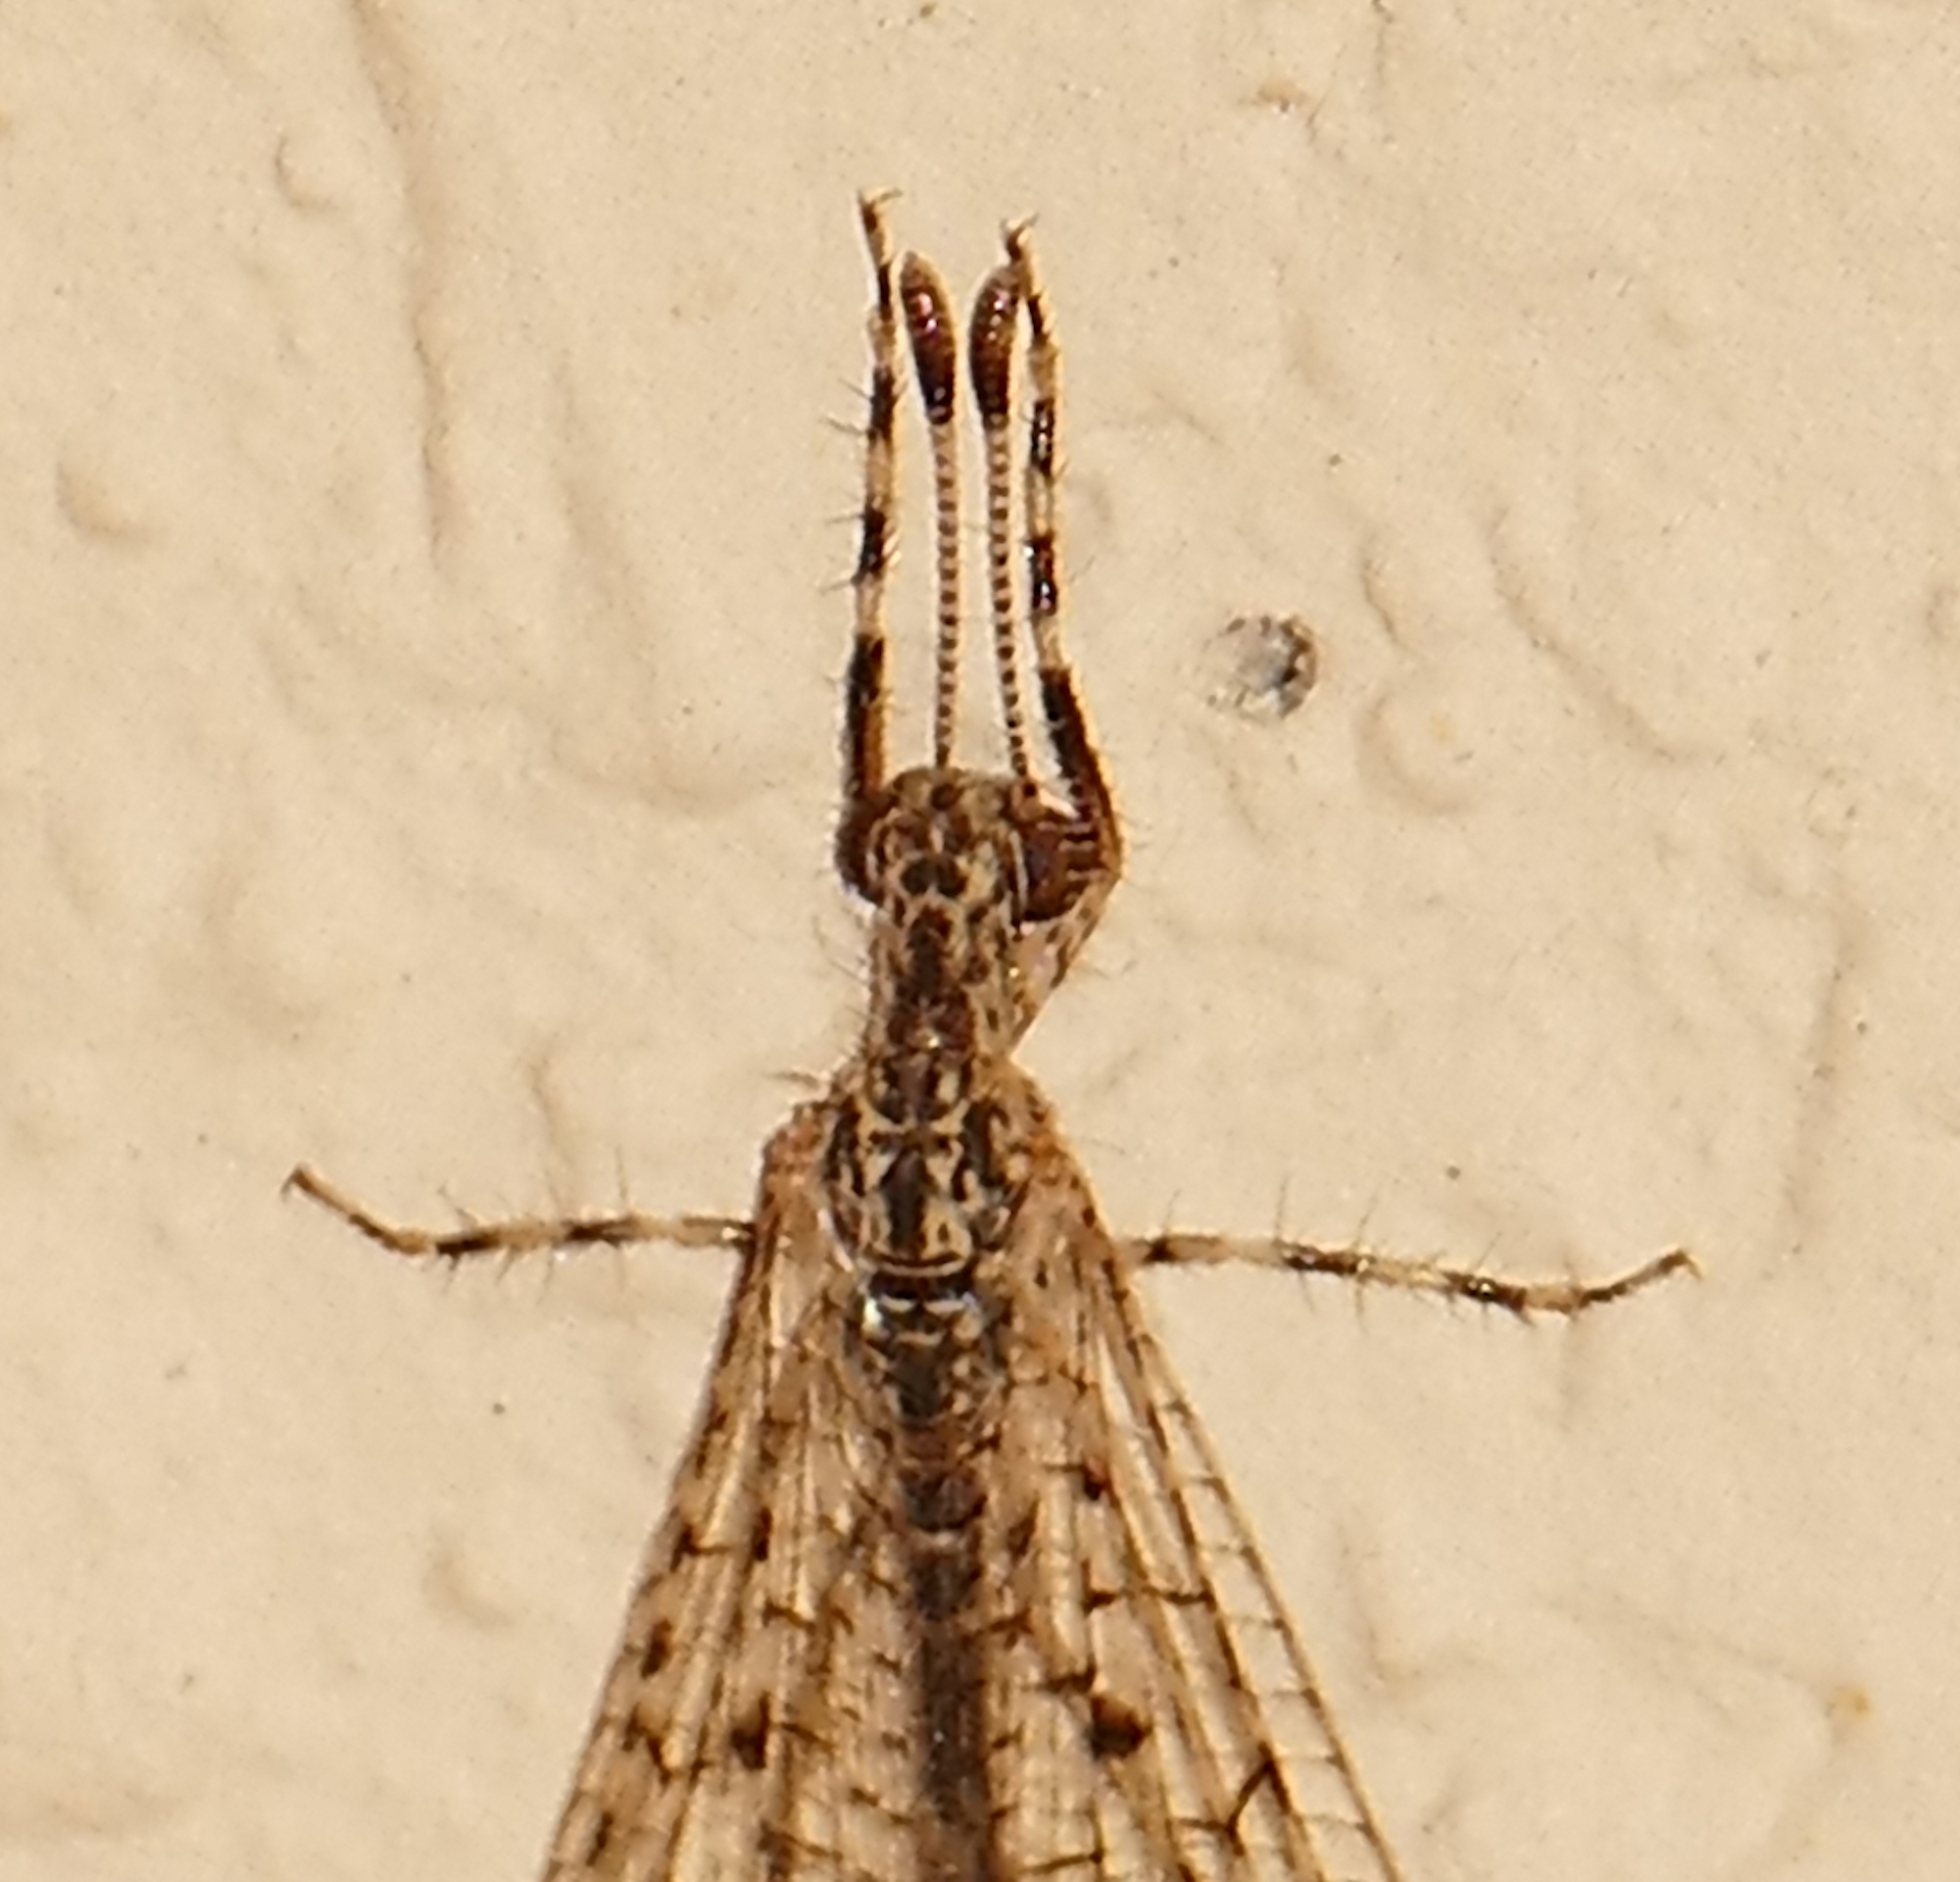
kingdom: Animalia
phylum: Arthropoda
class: Insecta
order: Neuroptera
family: Myrmeleontidae
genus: Chaetoleon
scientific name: Chaetoleon pusillus
